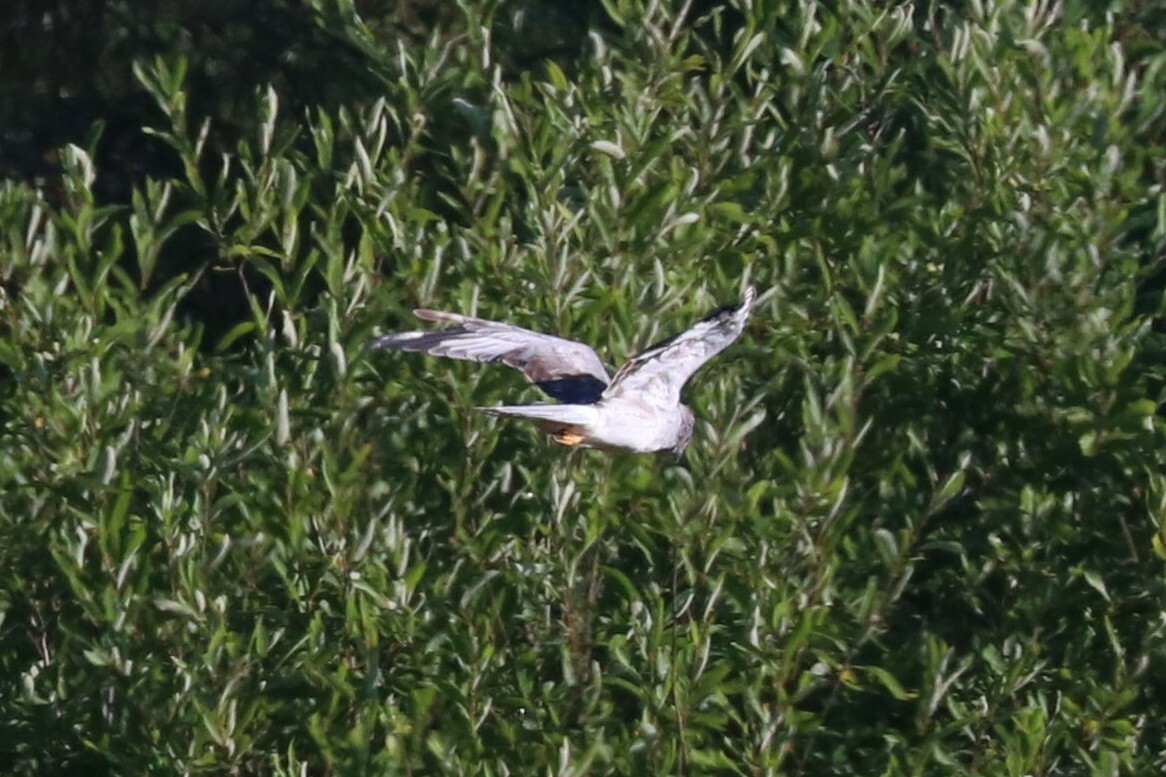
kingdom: Animalia
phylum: Chordata
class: Aves
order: Accipitriformes
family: Accipitridae
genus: Circus
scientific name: Circus cyaneus
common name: Hen harrier
